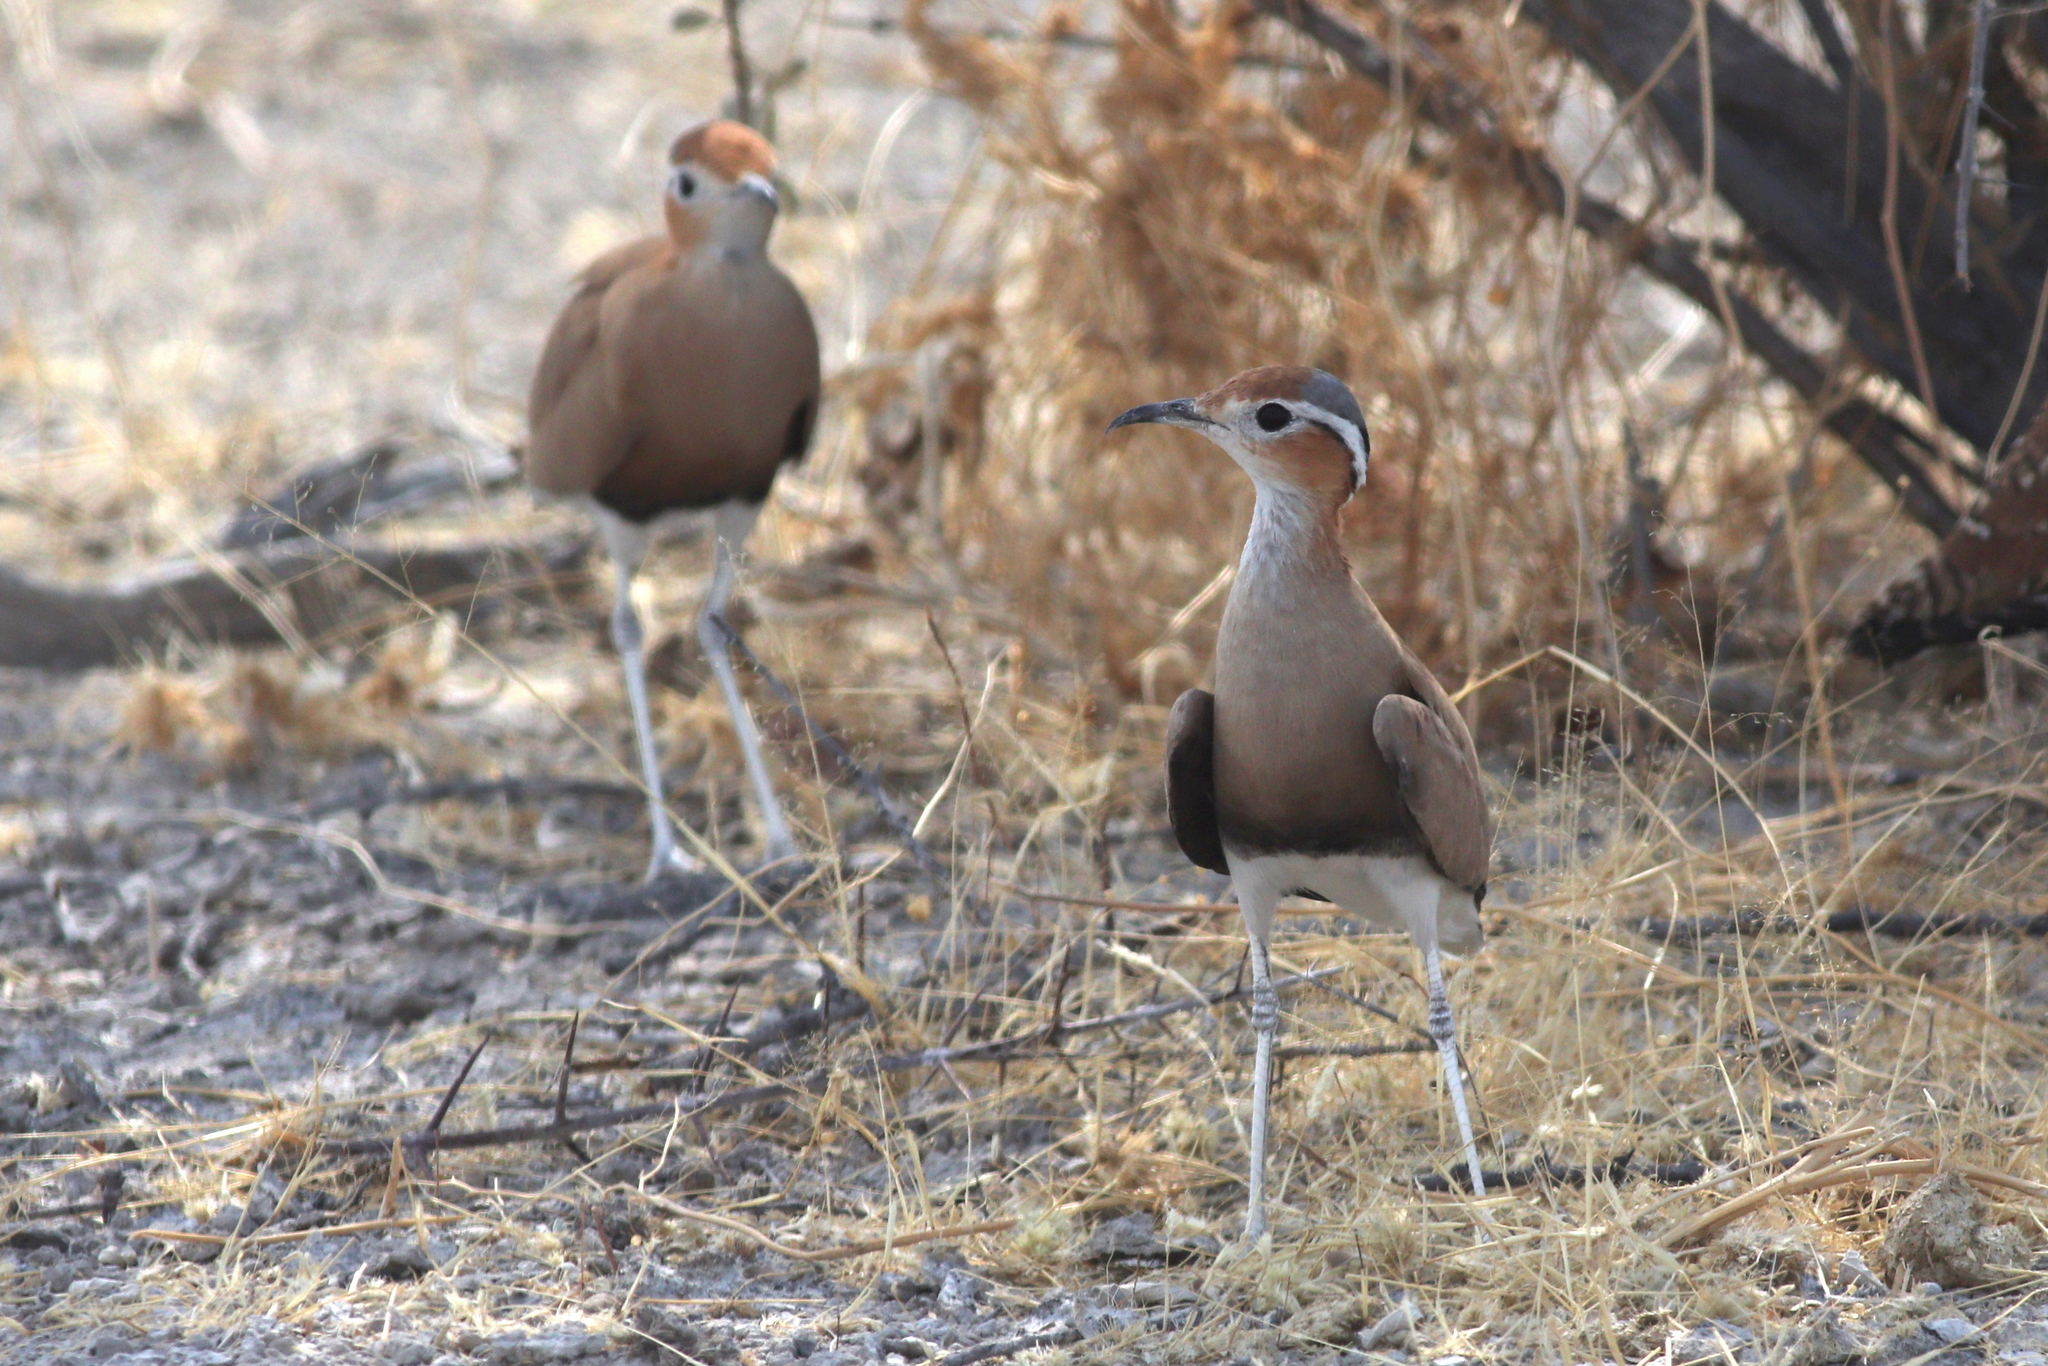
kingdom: Animalia
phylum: Chordata
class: Aves
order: Charadriiformes
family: Glareolidae
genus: Cursorius
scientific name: Cursorius rufus
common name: Burchell's courser
